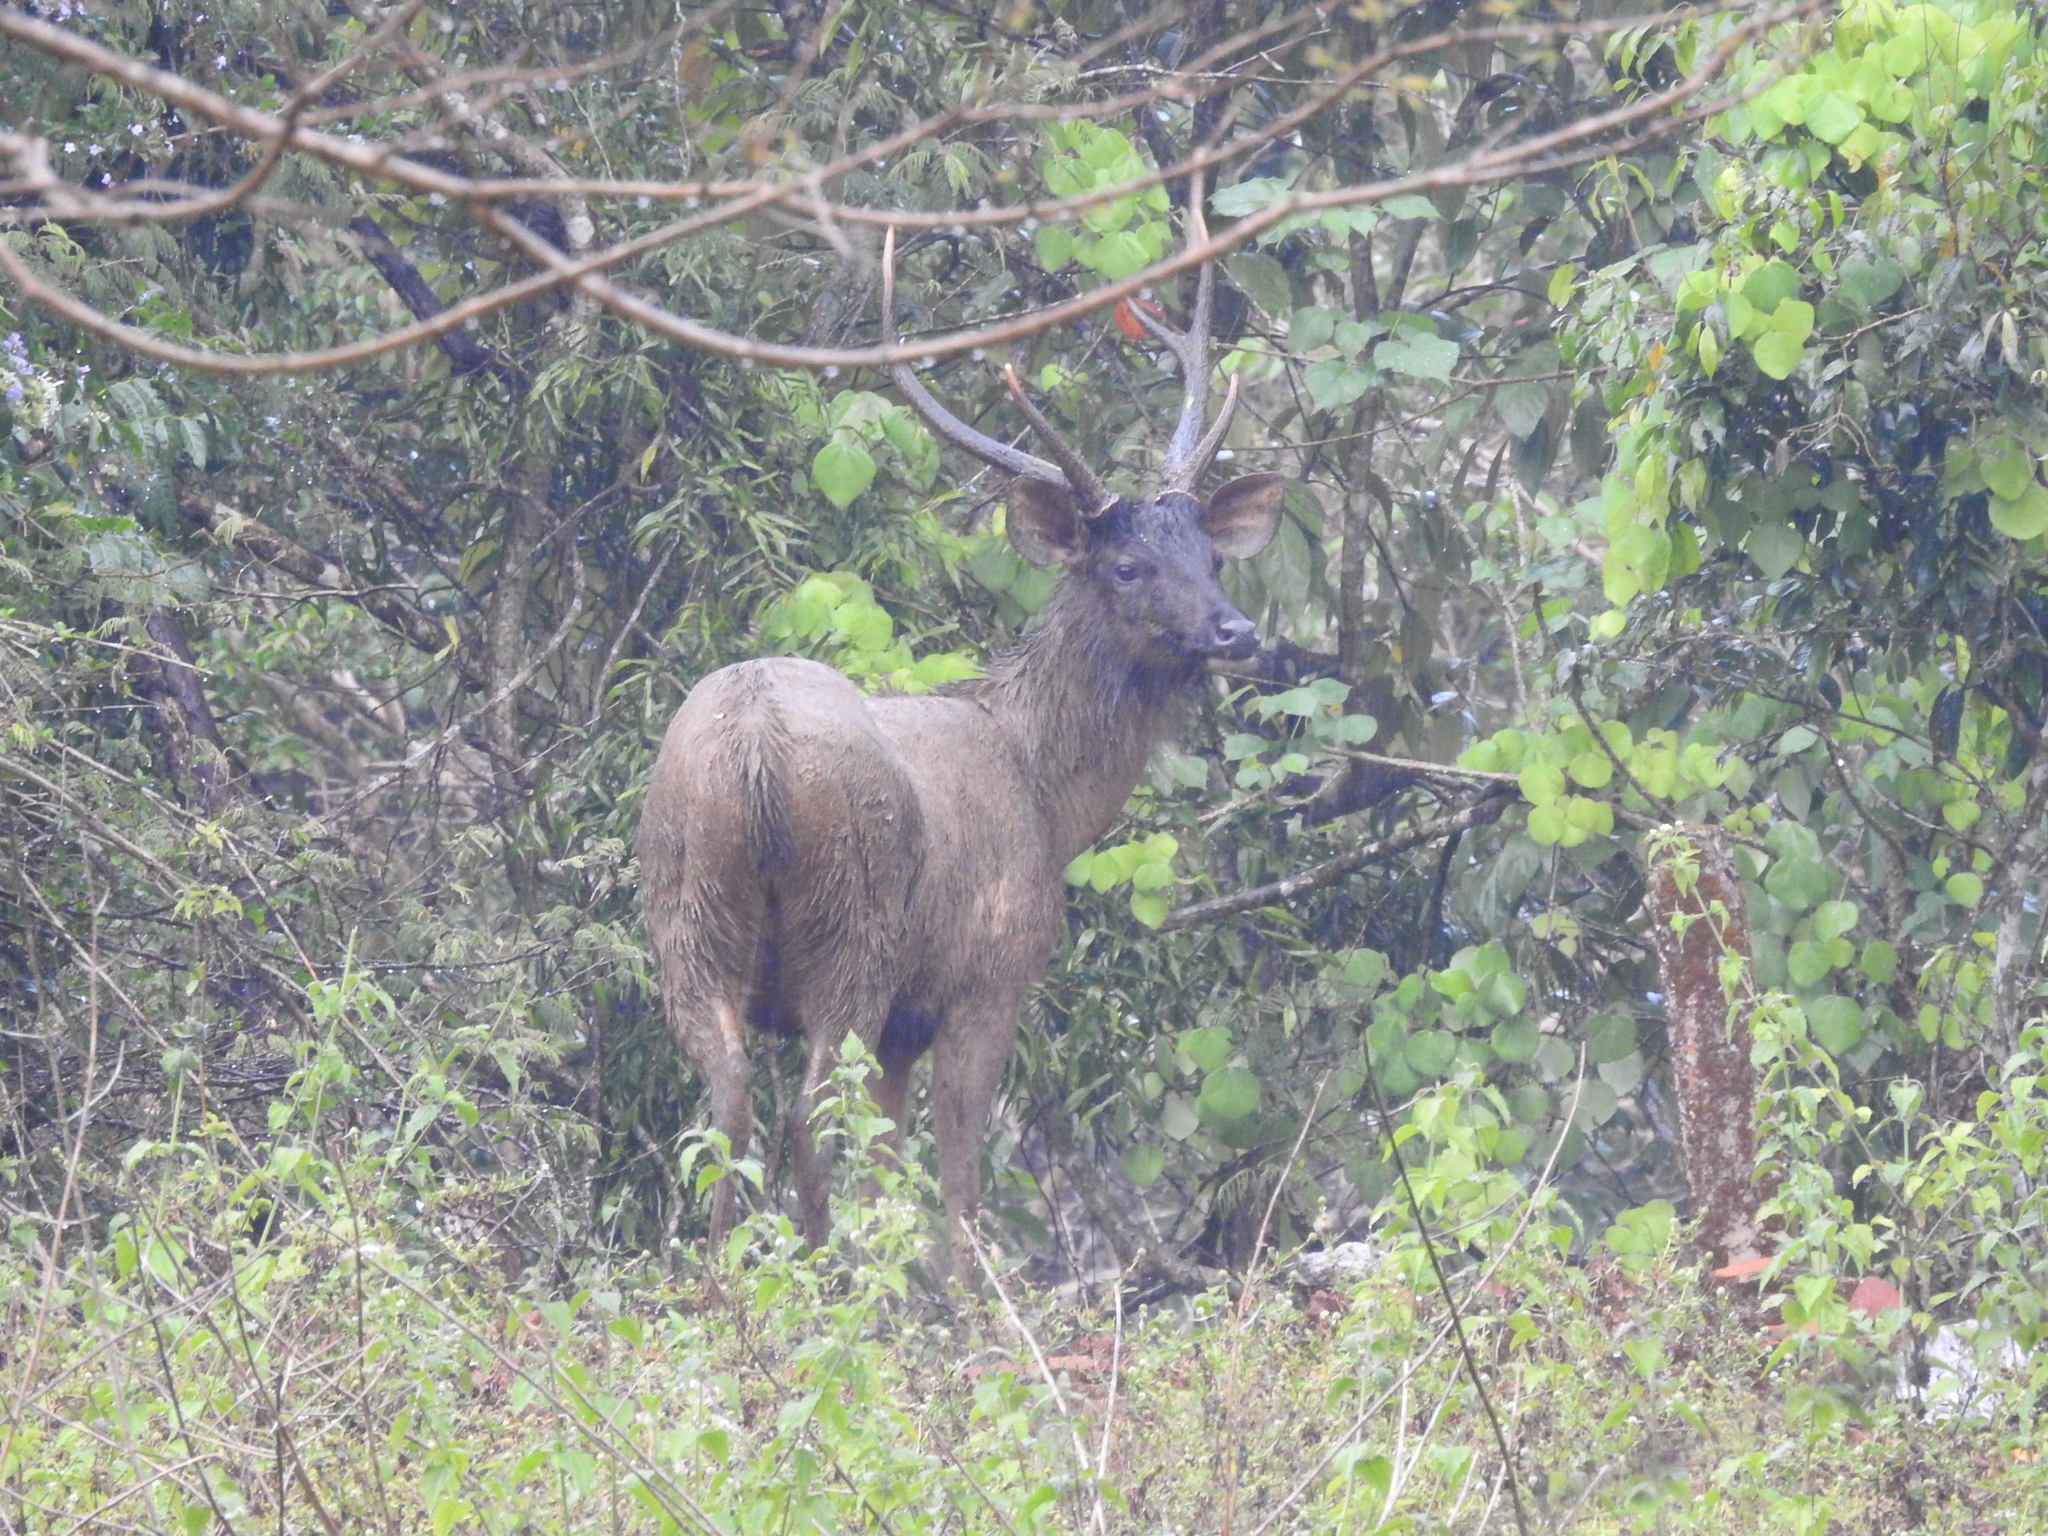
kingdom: Animalia
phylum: Chordata
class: Mammalia
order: Artiodactyla
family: Cervidae
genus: Rusa
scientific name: Rusa unicolor
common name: Sambar
